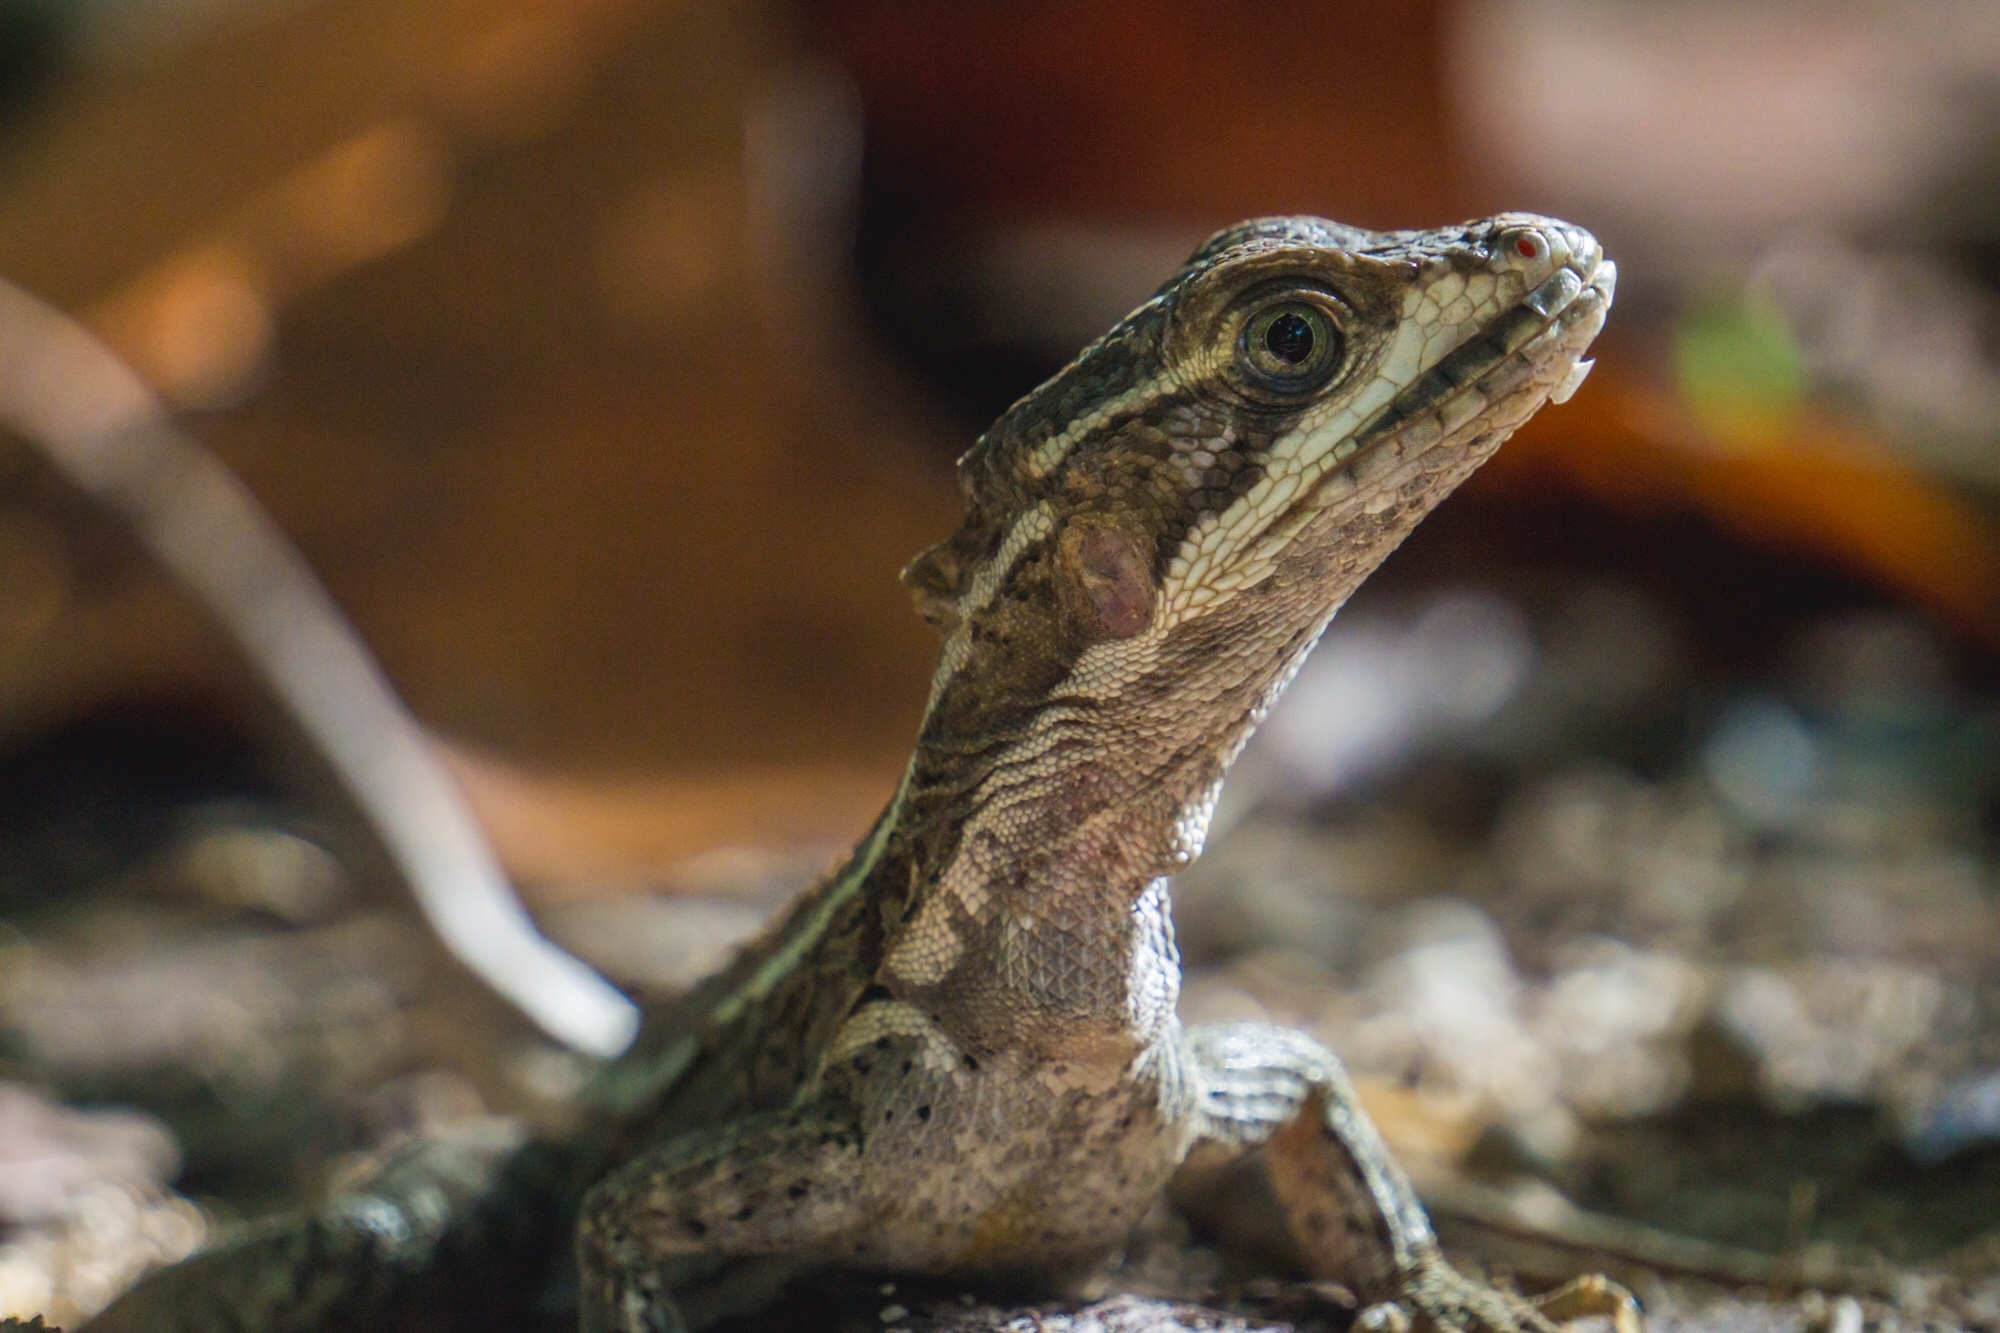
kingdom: Animalia
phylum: Chordata
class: Squamata
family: Corytophanidae
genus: Basiliscus
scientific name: Basiliscus vittatus
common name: Brown basilisk
